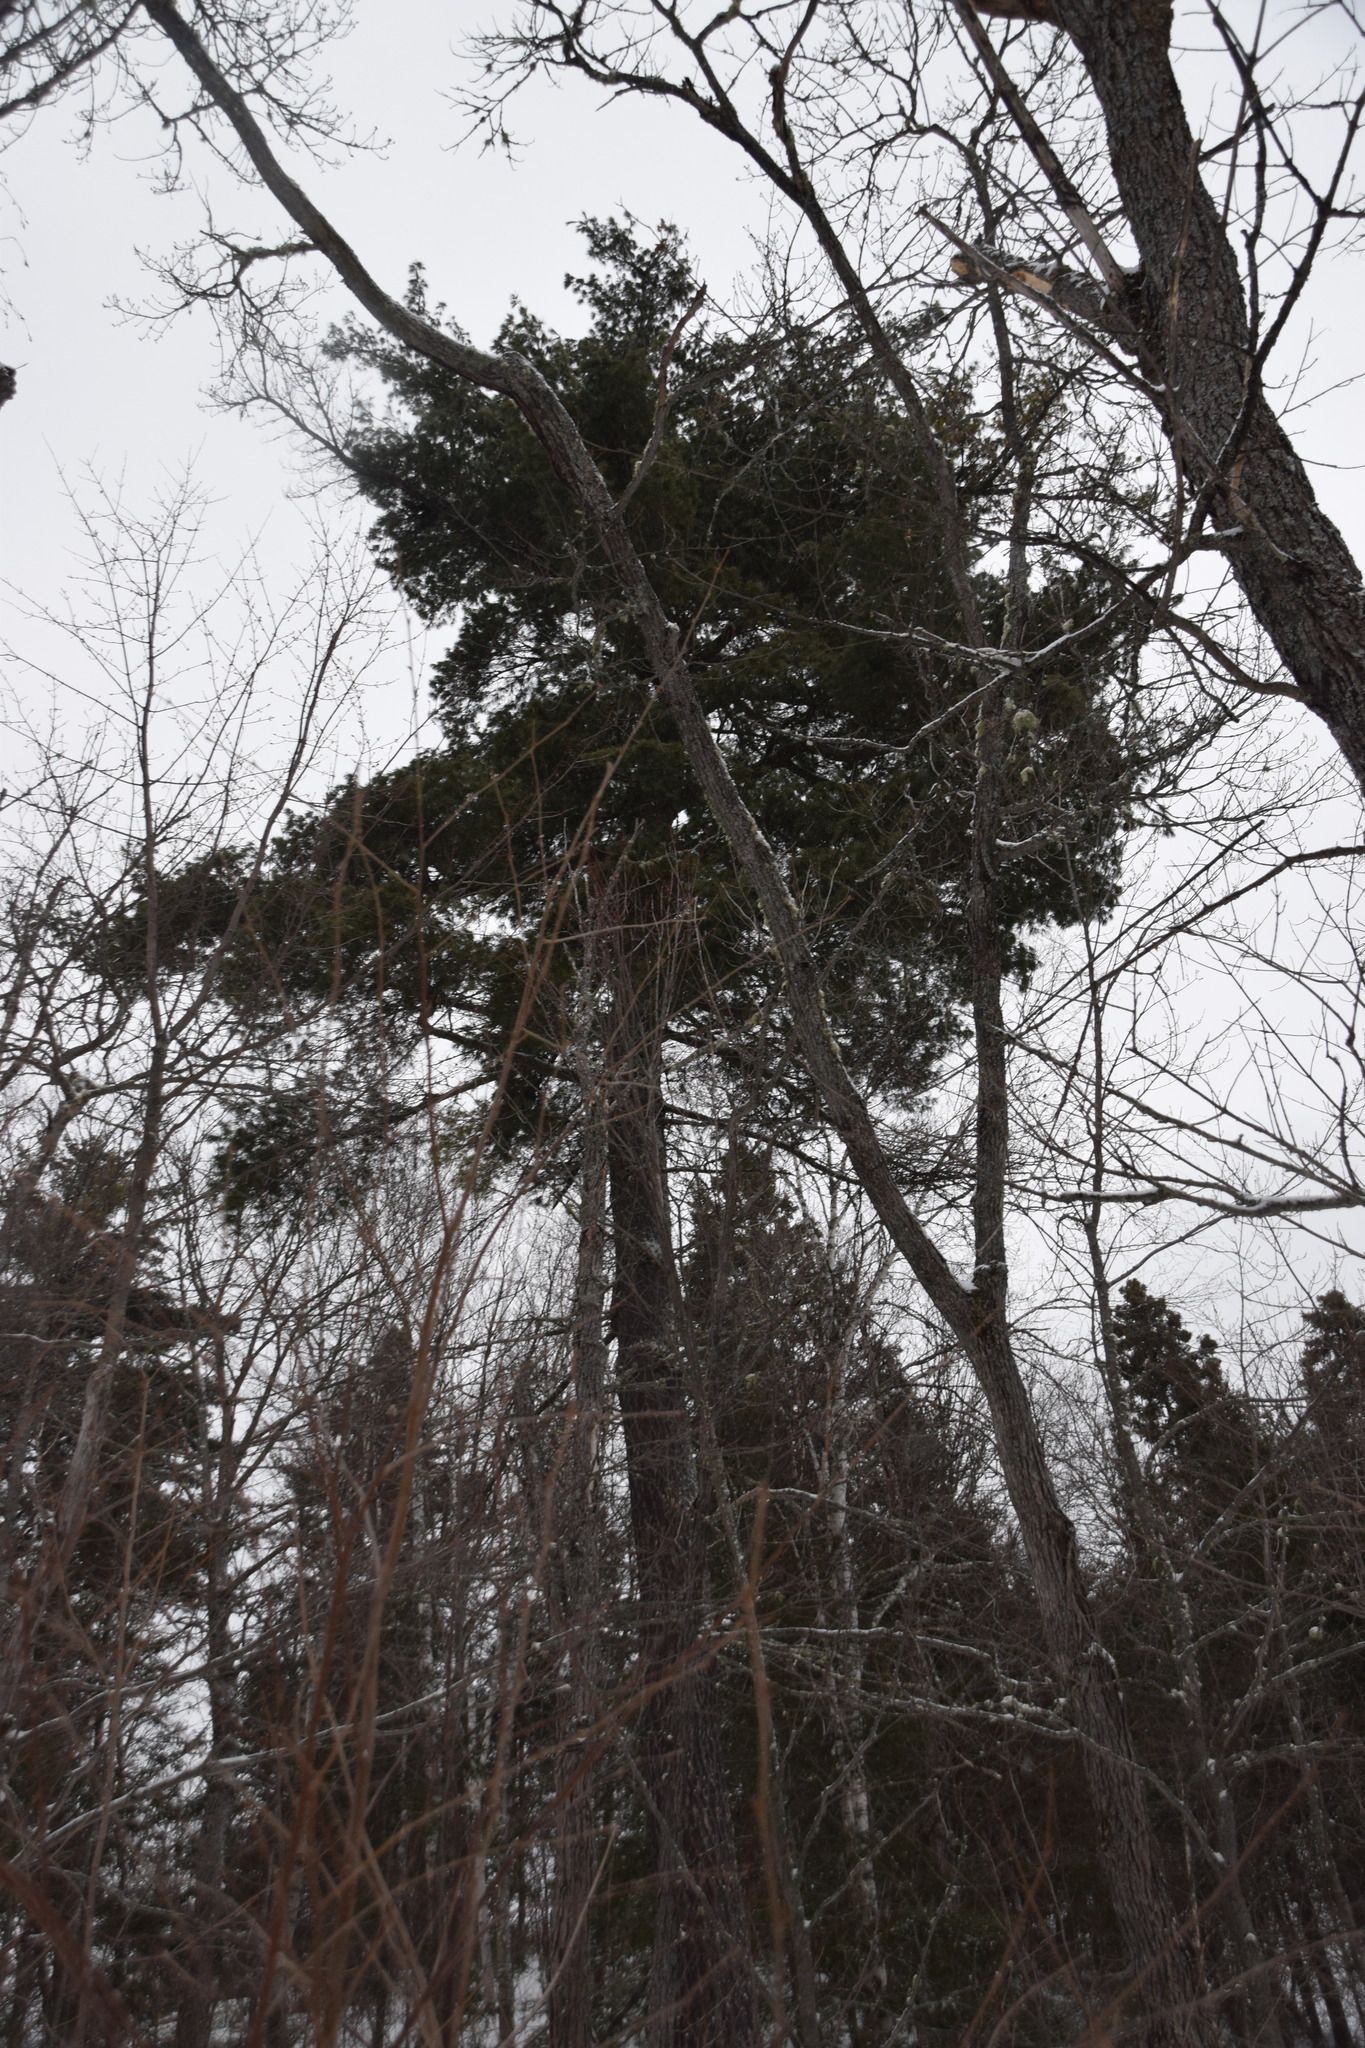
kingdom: Plantae
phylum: Tracheophyta
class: Pinopsida
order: Pinales
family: Pinaceae
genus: Pinus
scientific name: Pinus strobus
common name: Weymouth pine
